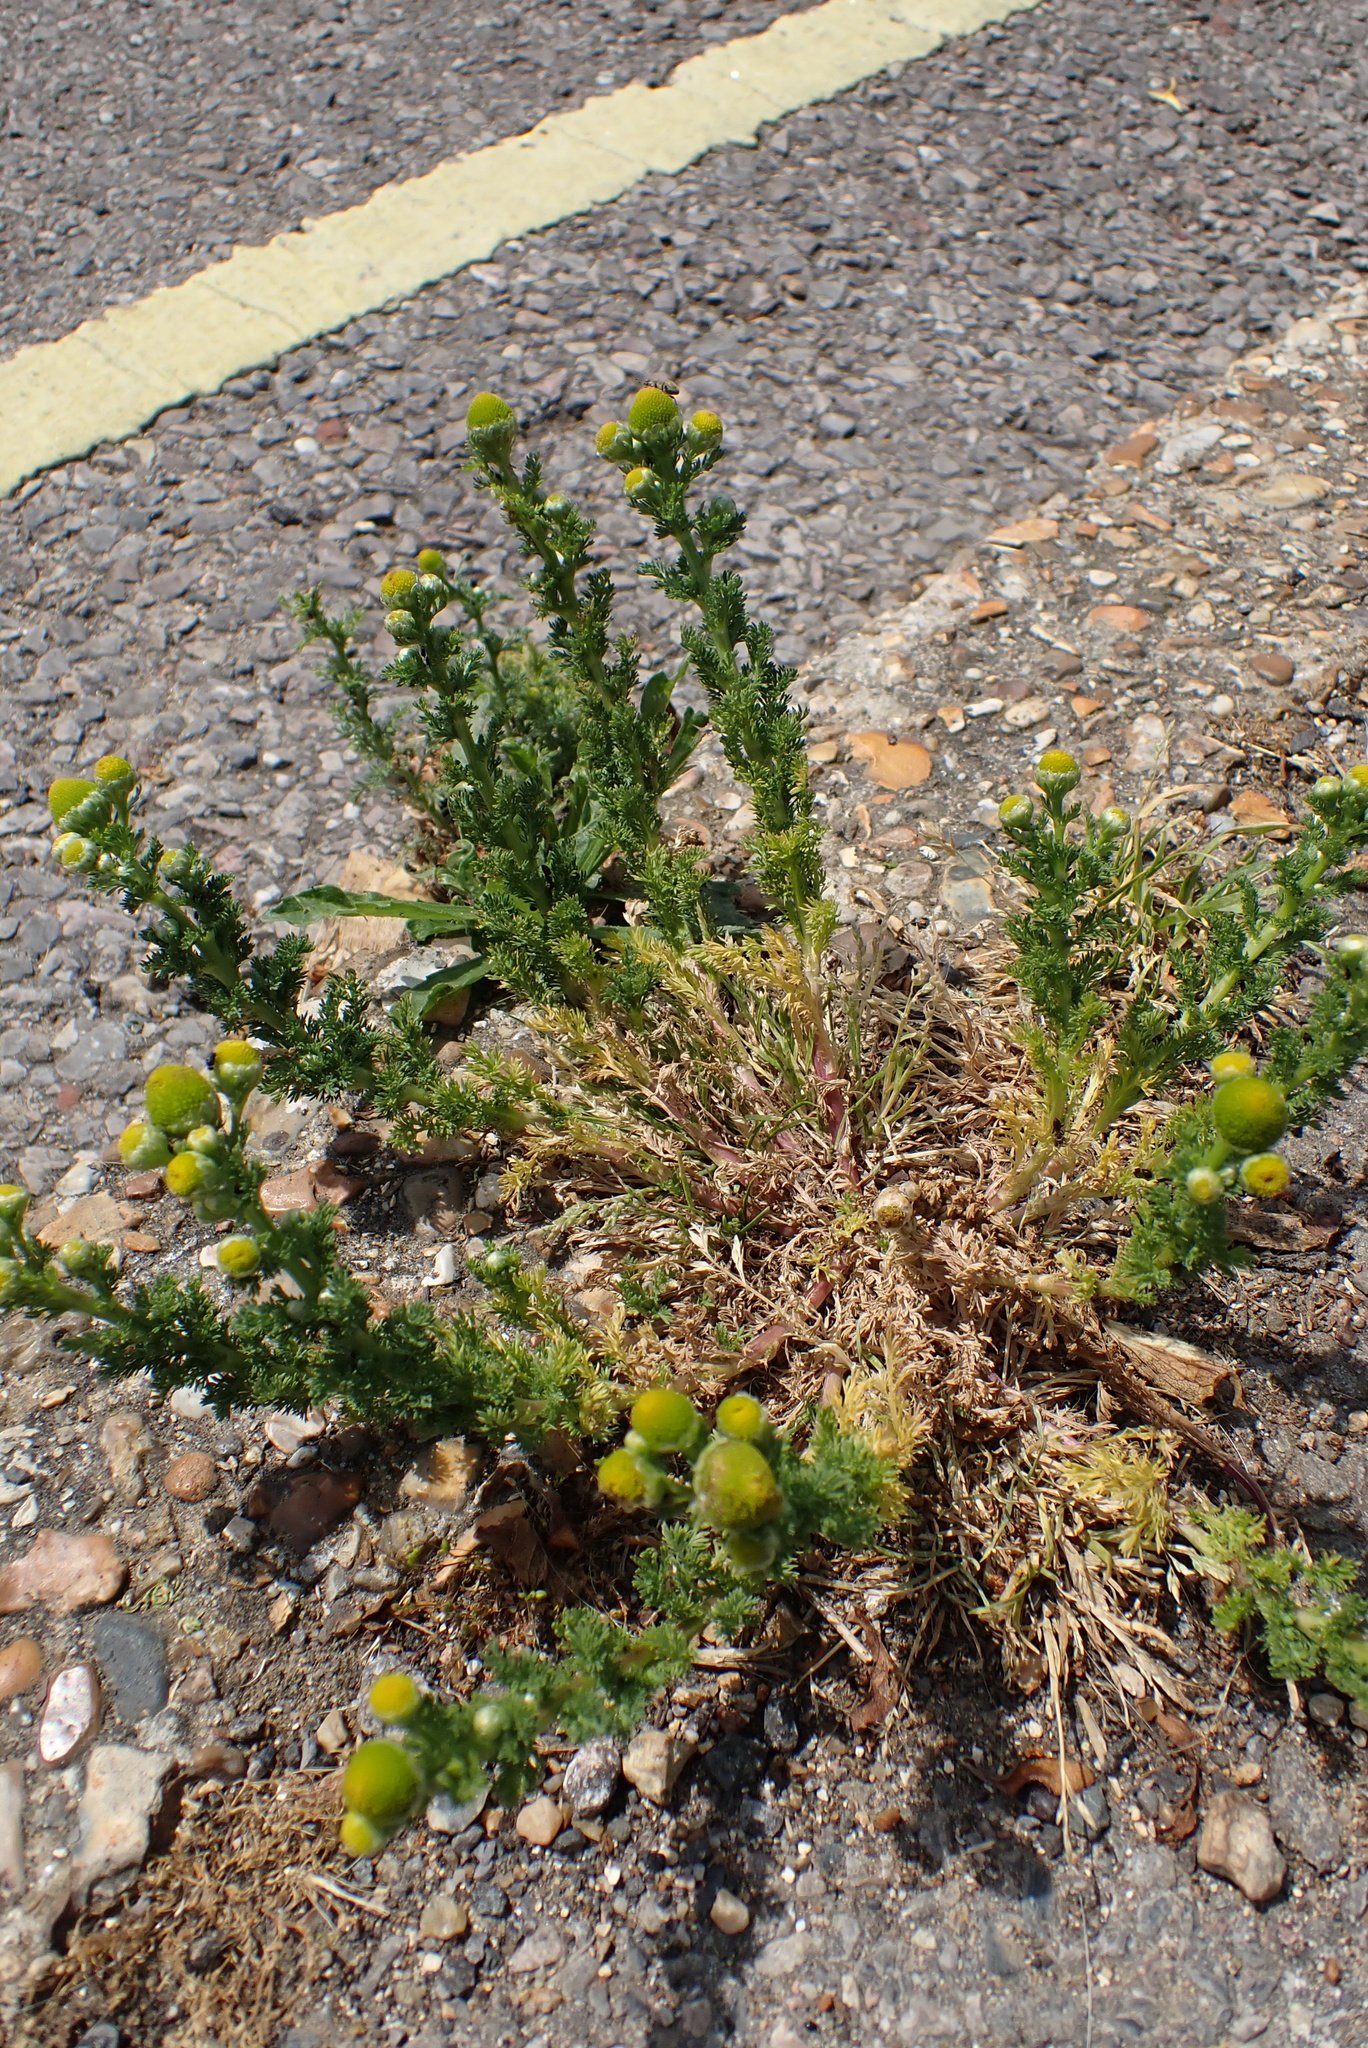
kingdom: Plantae
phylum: Tracheophyta
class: Magnoliopsida
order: Asterales
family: Asteraceae
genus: Matricaria
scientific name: Matricaria discoidea
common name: Disc mayweed
